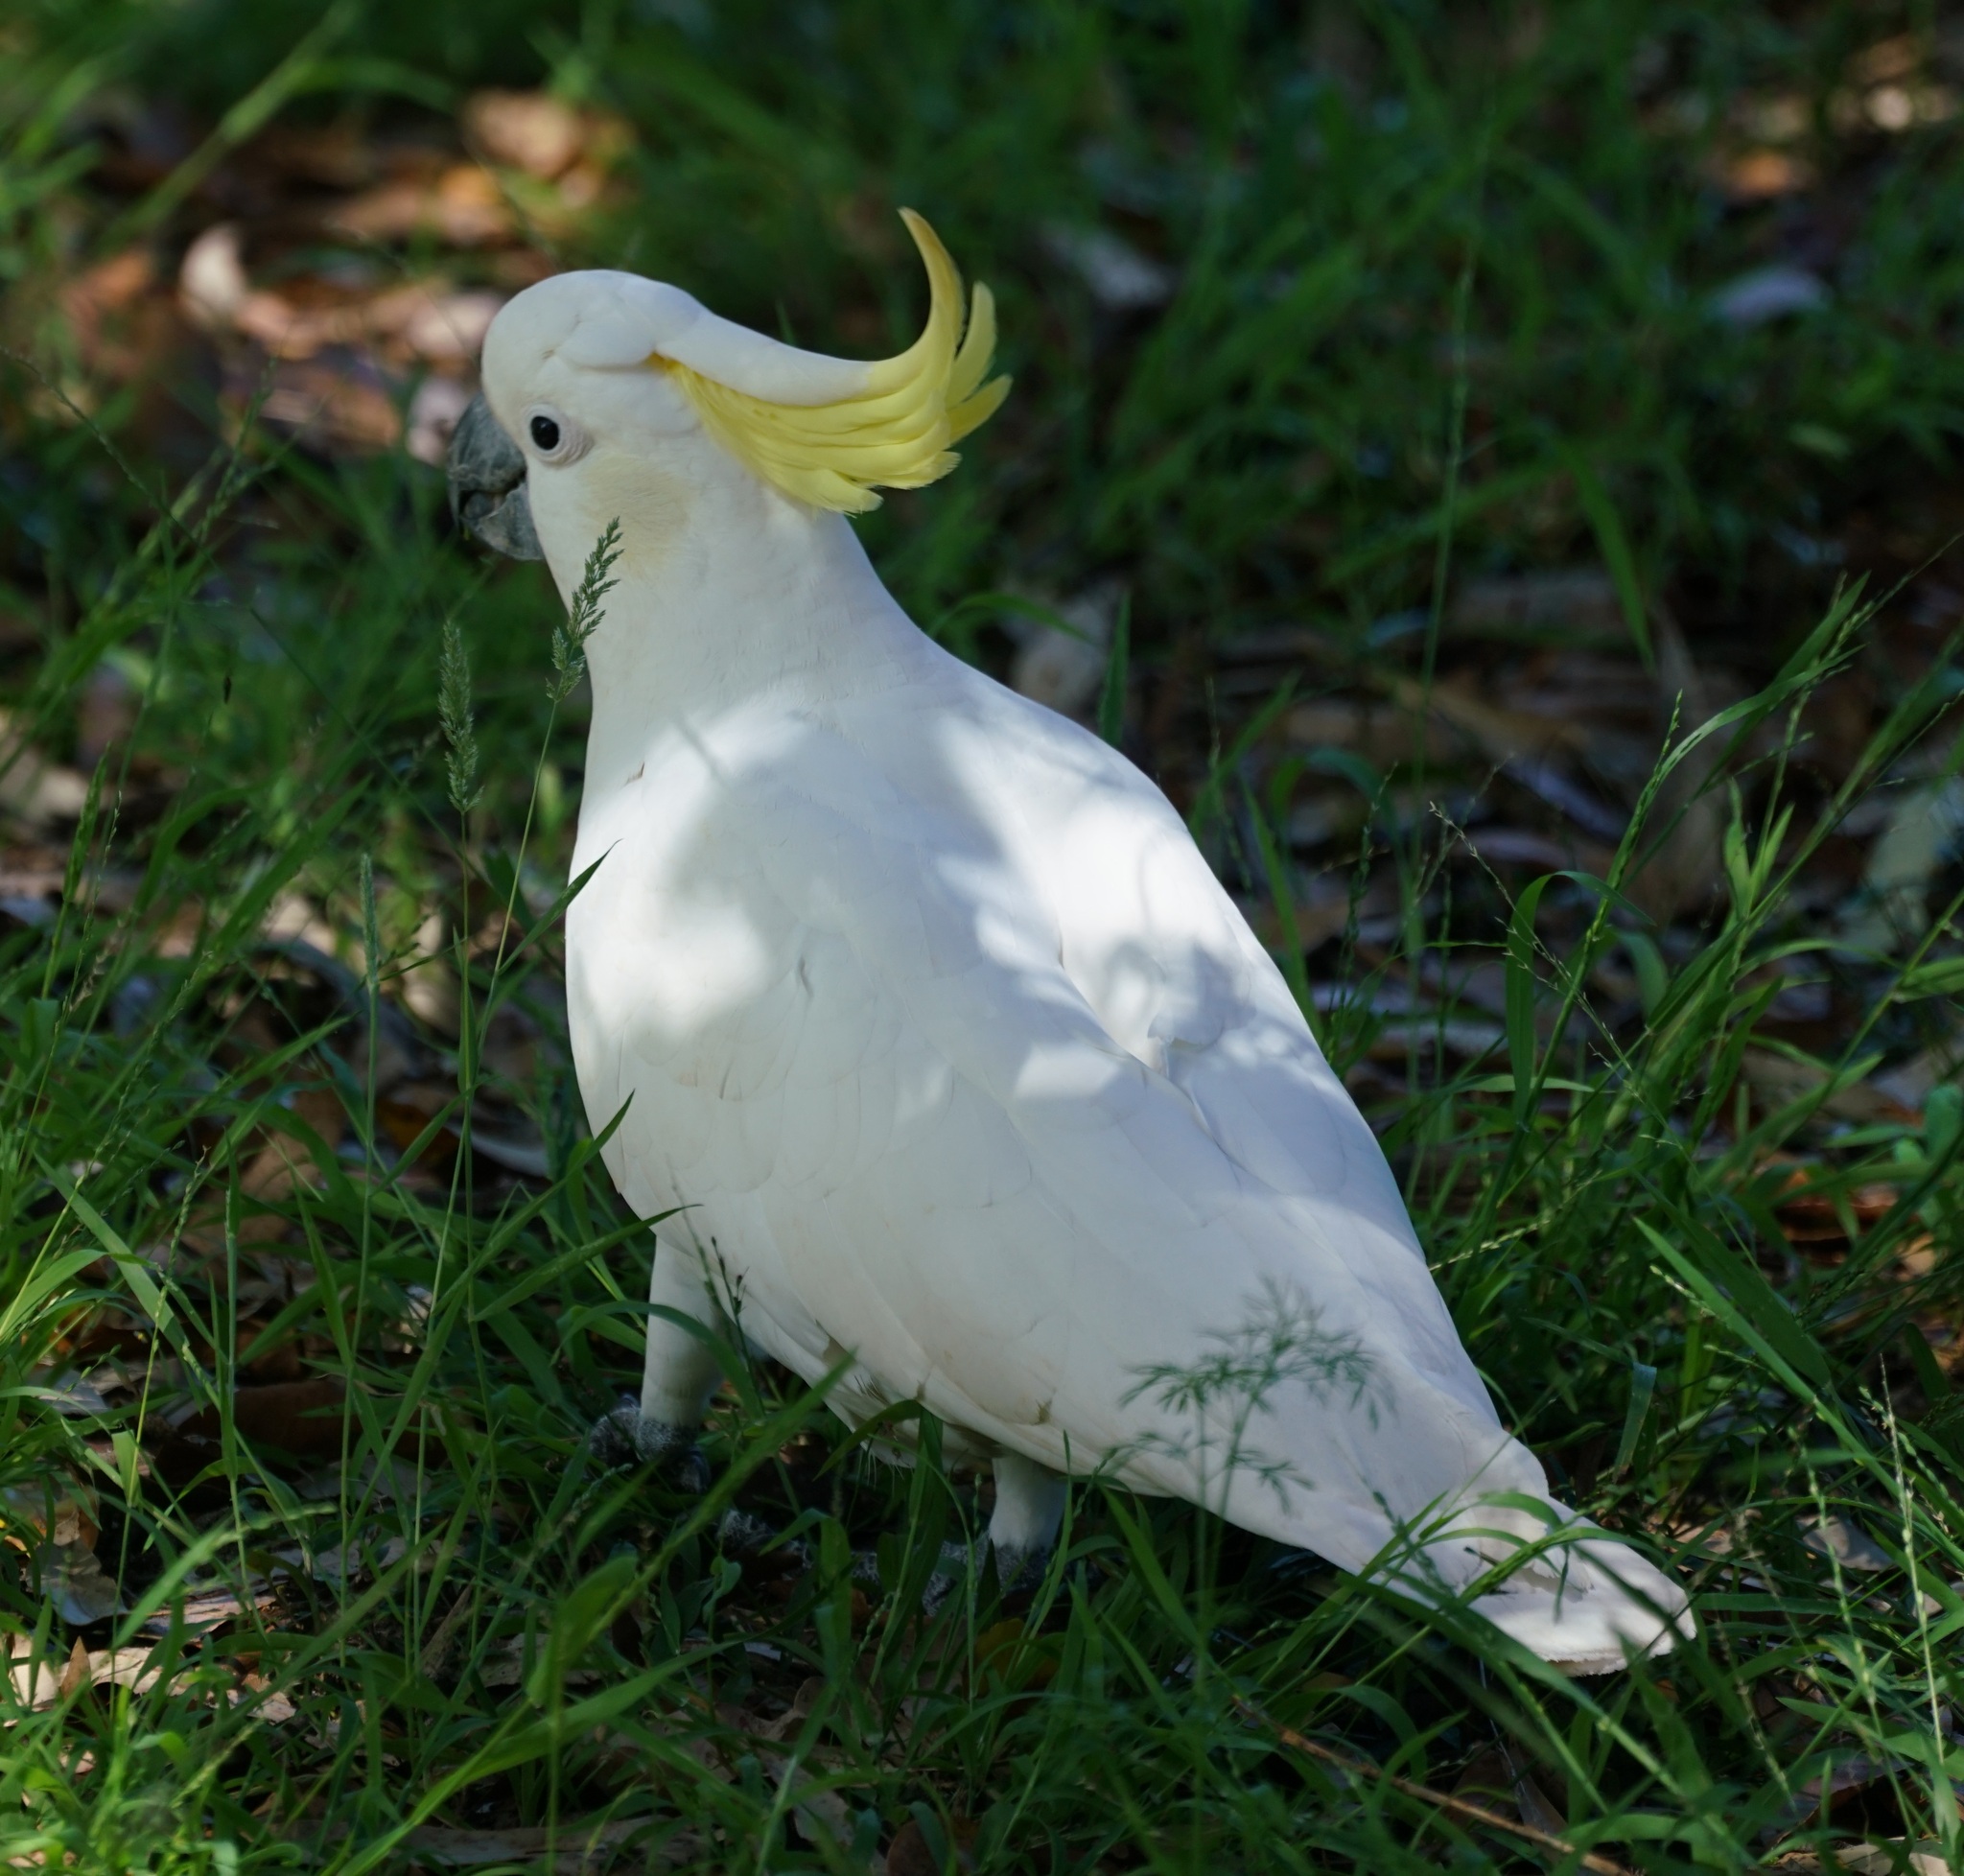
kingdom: Animalia
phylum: Chordata
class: Aves
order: Psittaciformes
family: Psittacidae
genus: Cacatua
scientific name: Cacatua galerita
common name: Sulphur-crested cockatoo
